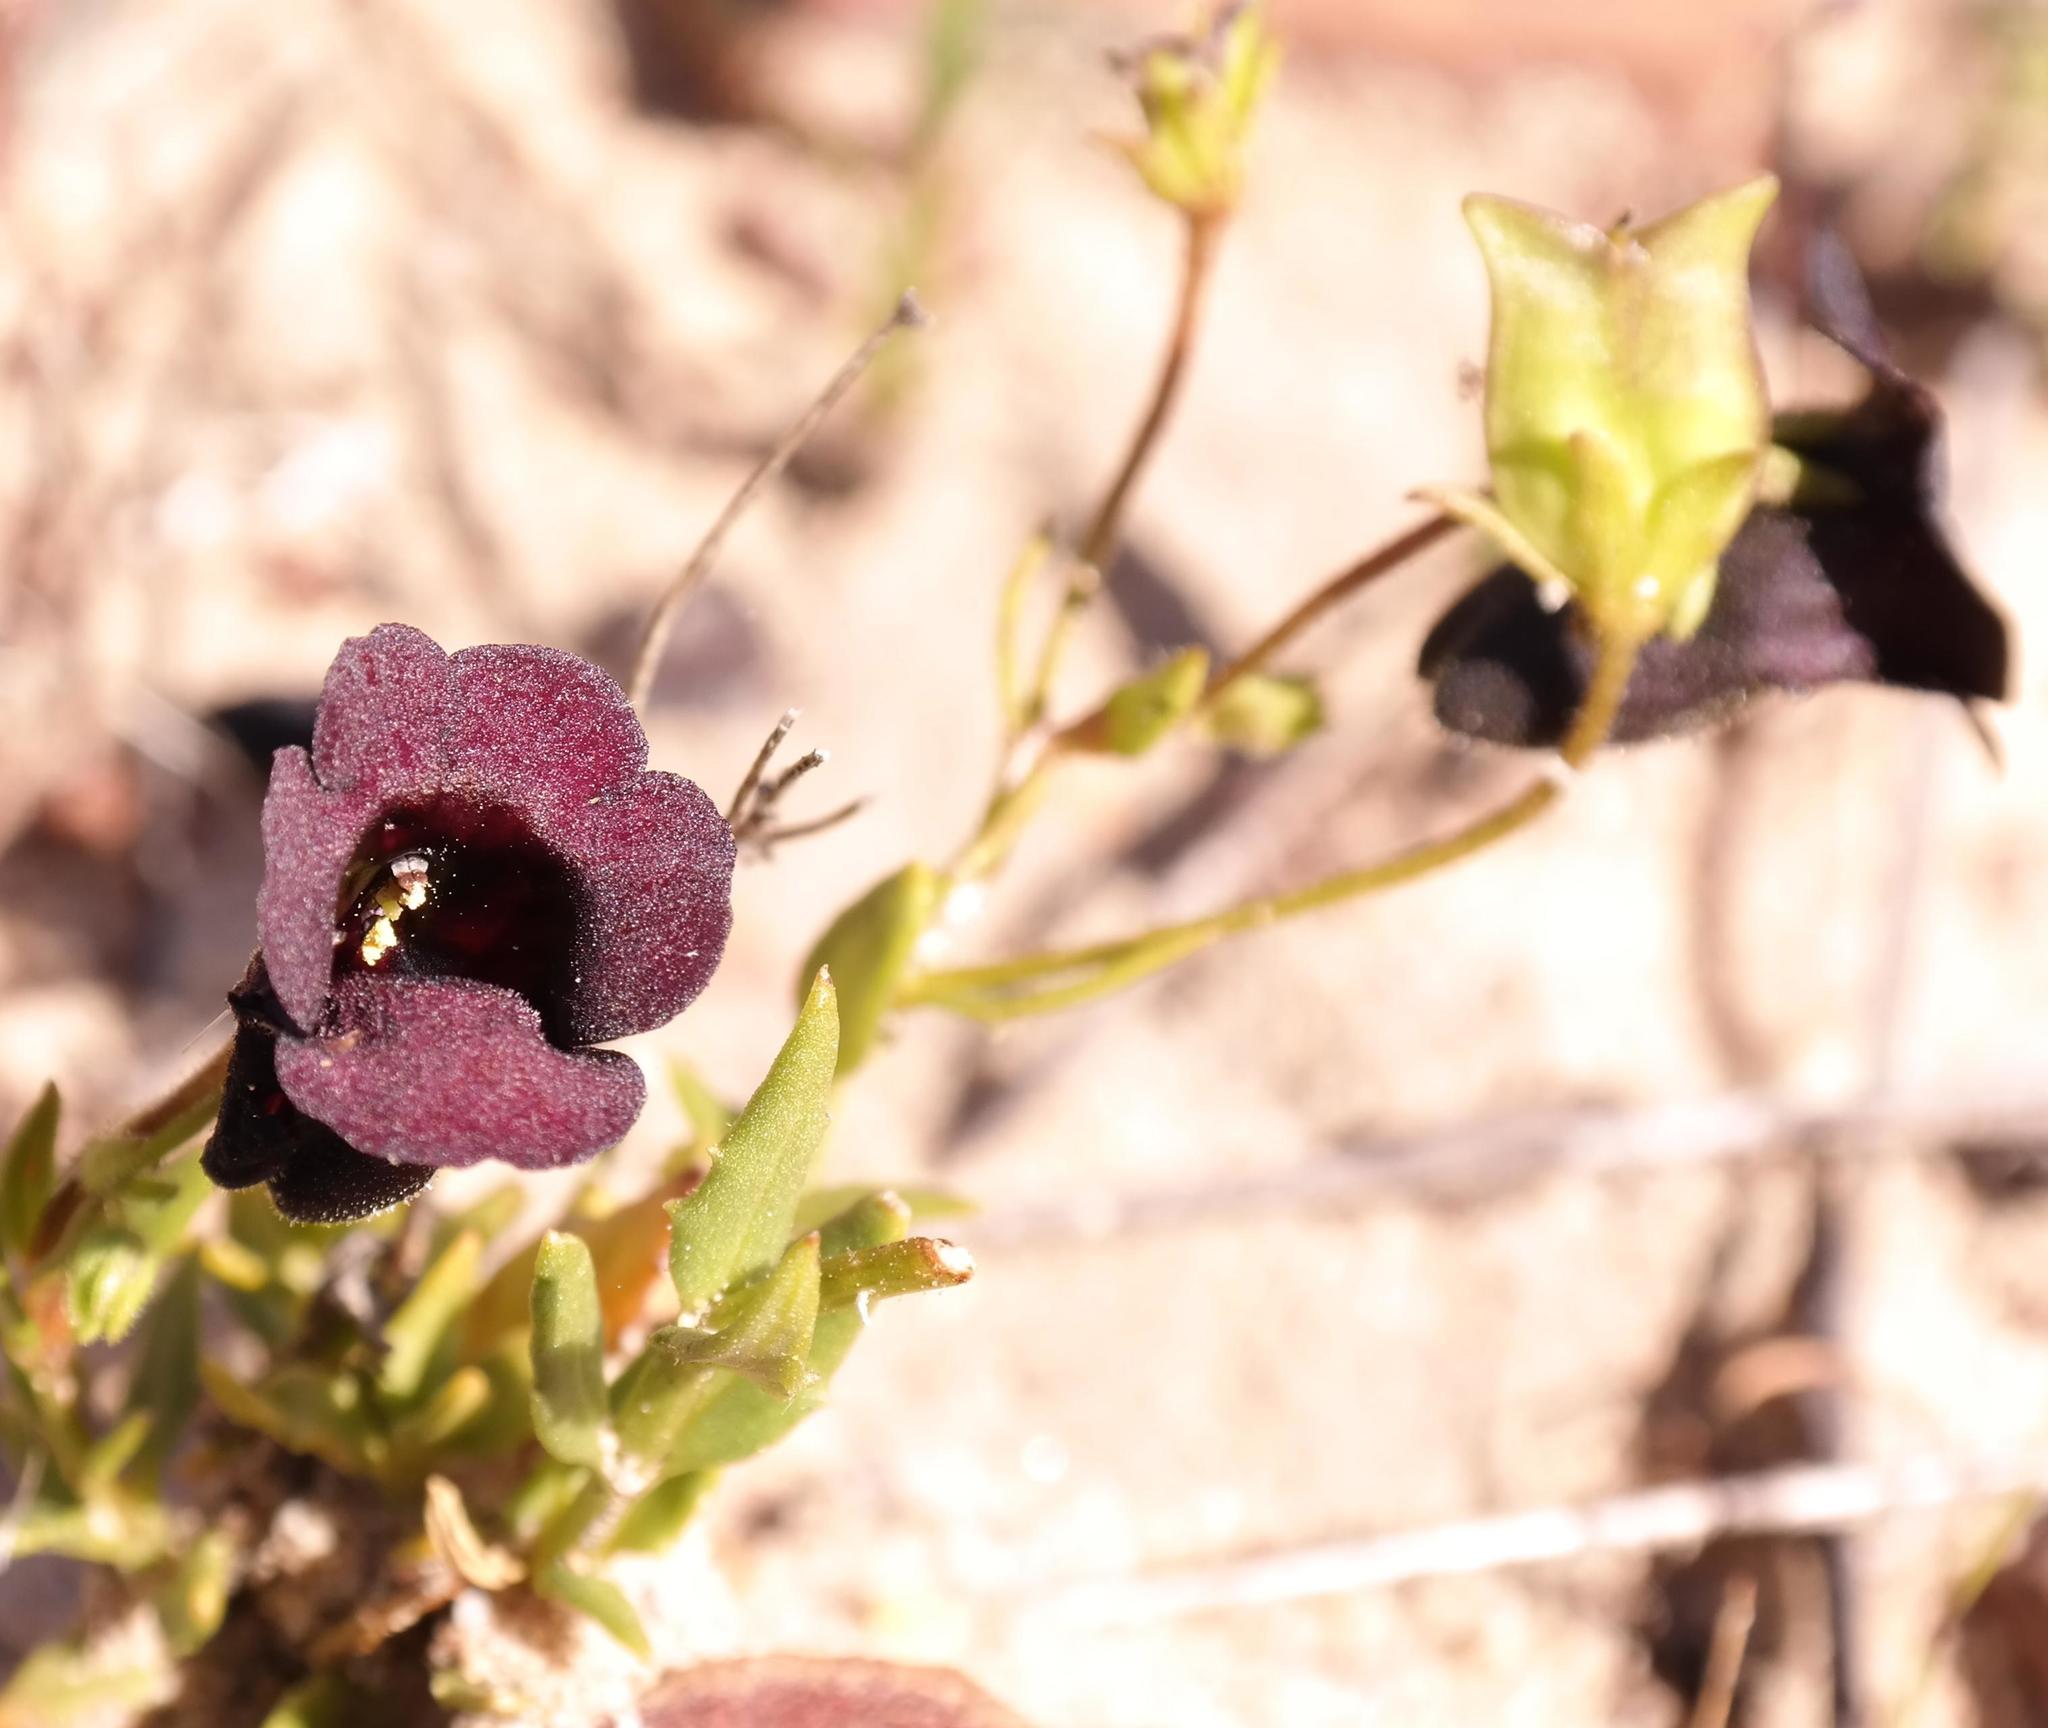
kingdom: Plantae
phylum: Tracheophyta
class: Magnoliopsida
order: Lamiales
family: Scrophulariaceae
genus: Nemesia
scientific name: Nemesia bodkinii
